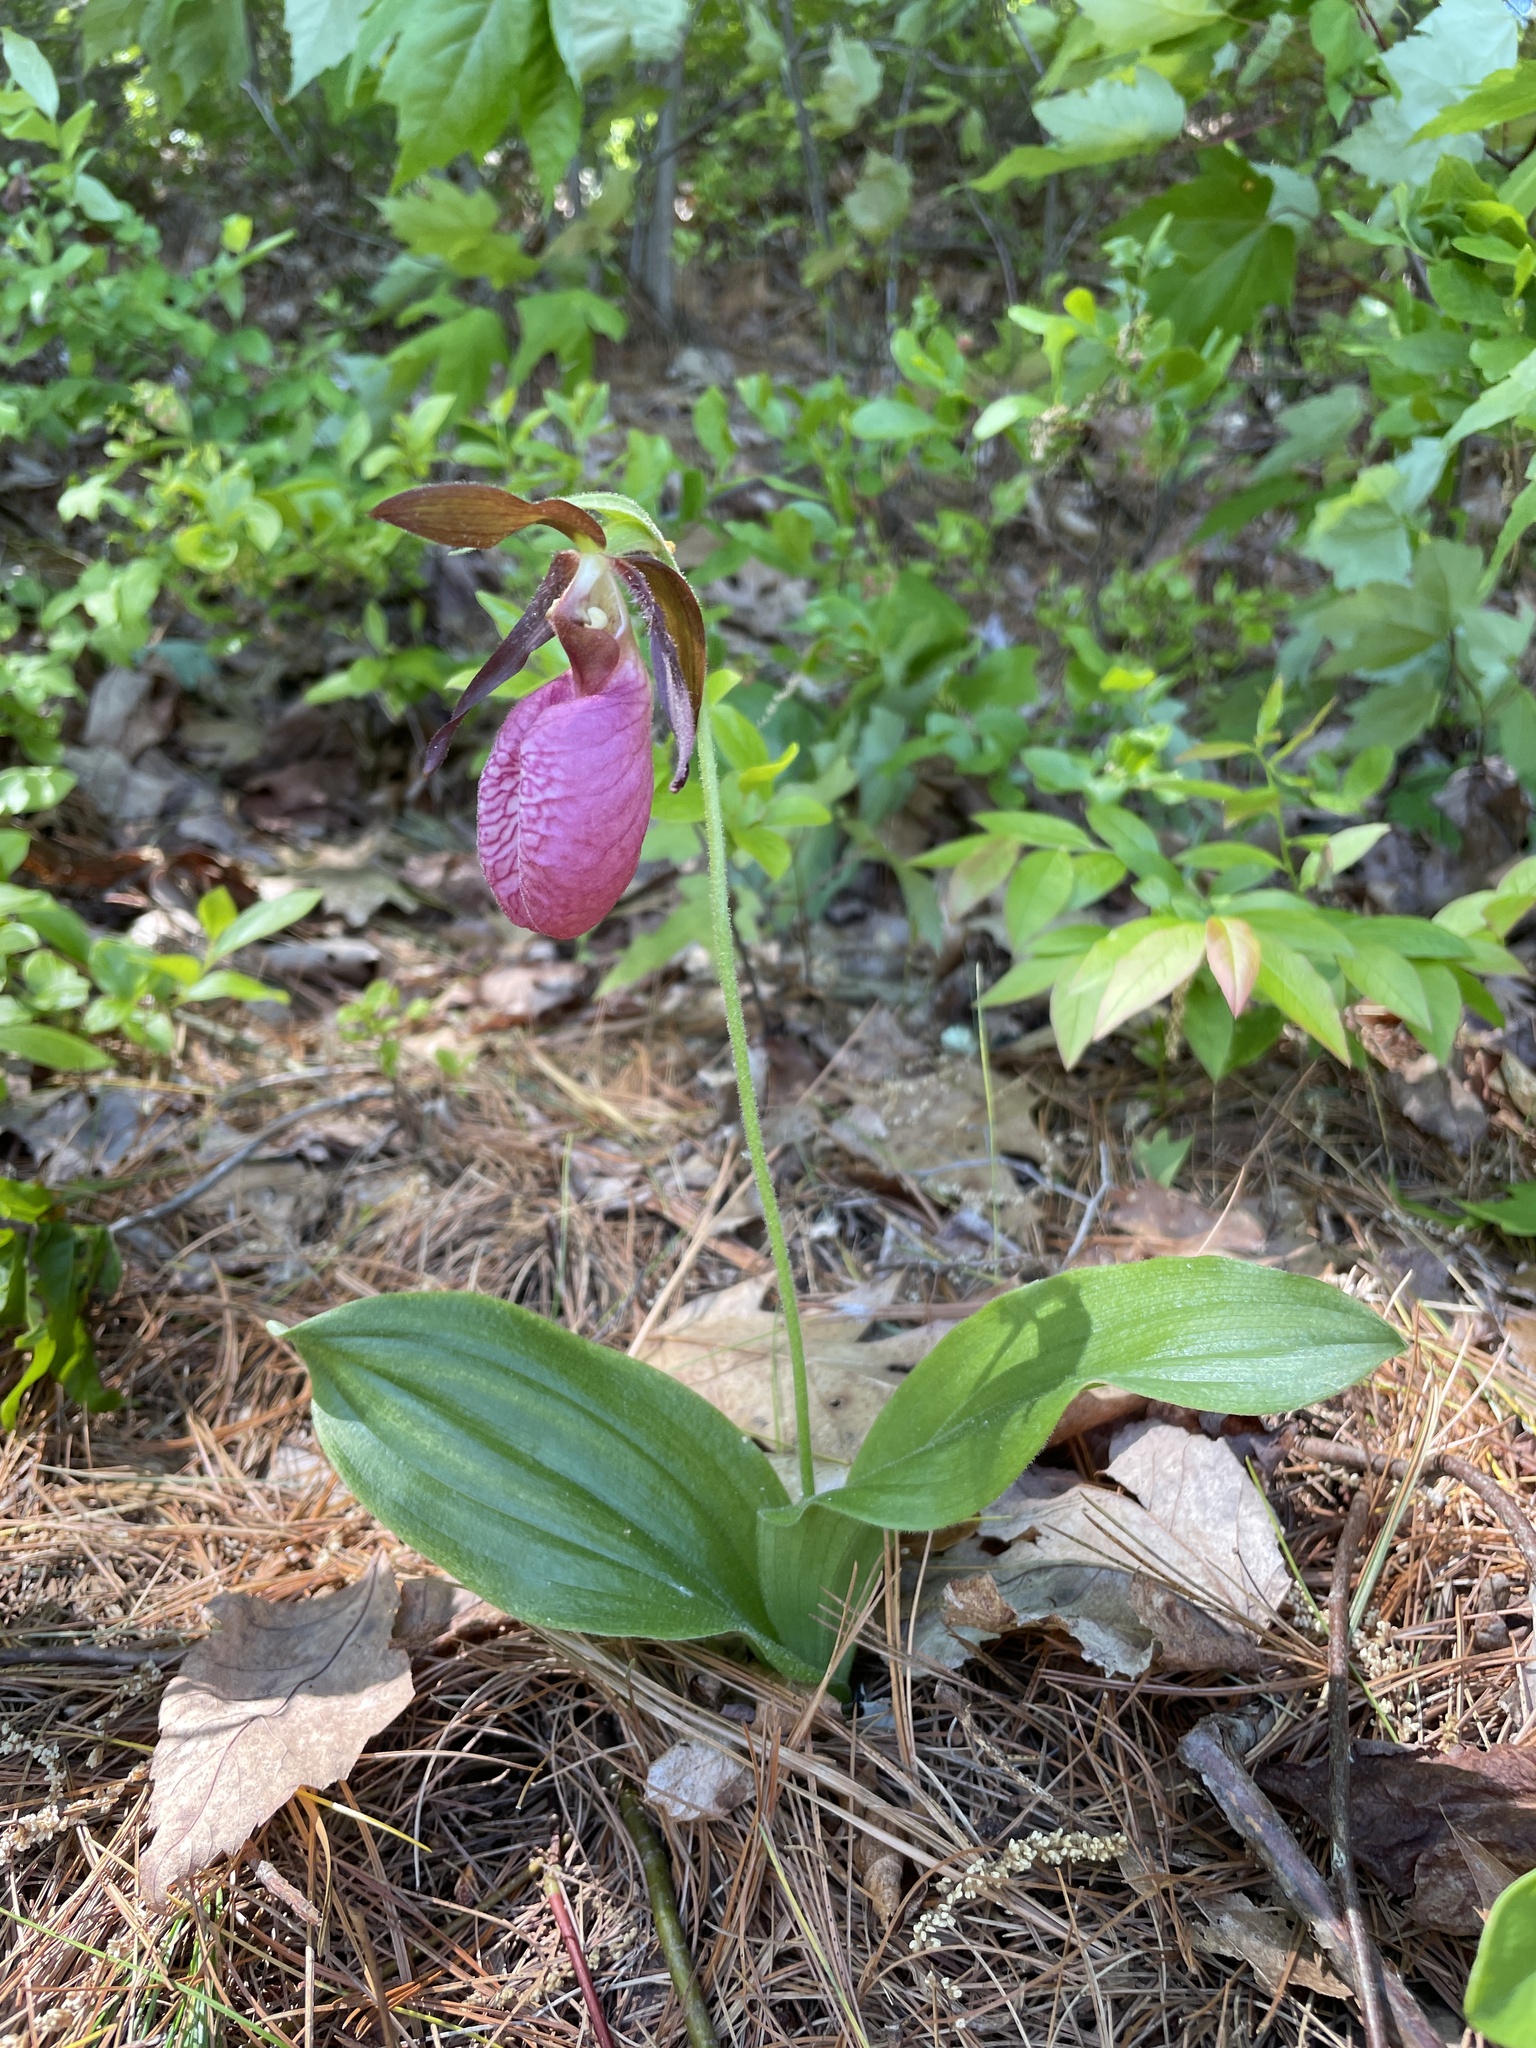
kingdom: Plantae
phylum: Tracheophyta
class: Liliopsida
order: Asparagales
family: Orchidaceae
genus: Cypripedium
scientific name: Cypripedium acaule
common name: Pink lady's-slipper
